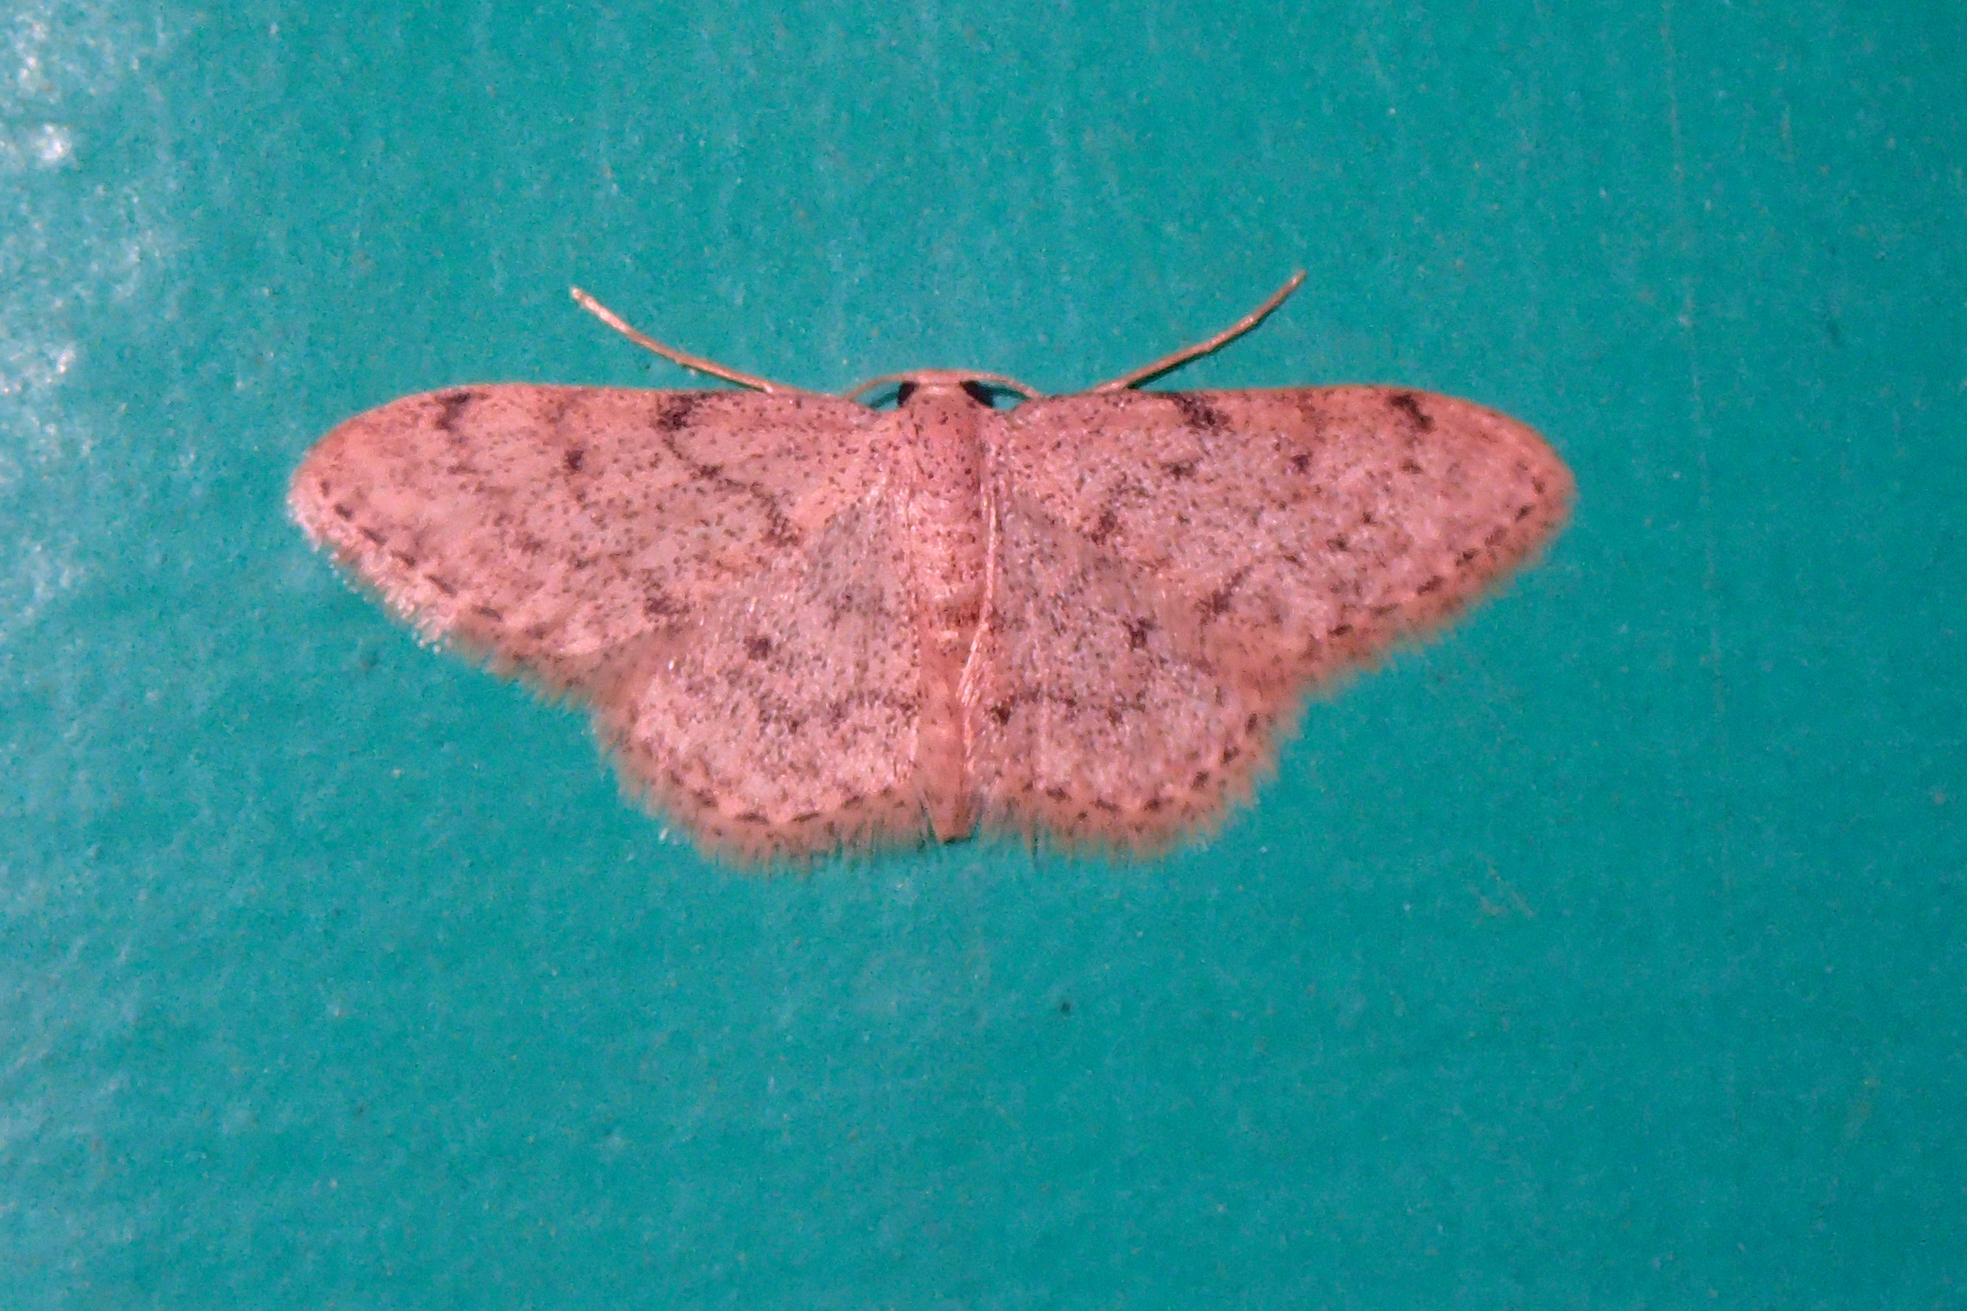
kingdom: Animalia
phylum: Arthropoda
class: Insecta
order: Lepidoptera
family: Geometridae
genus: Idaea
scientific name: Idaea cervantaria
